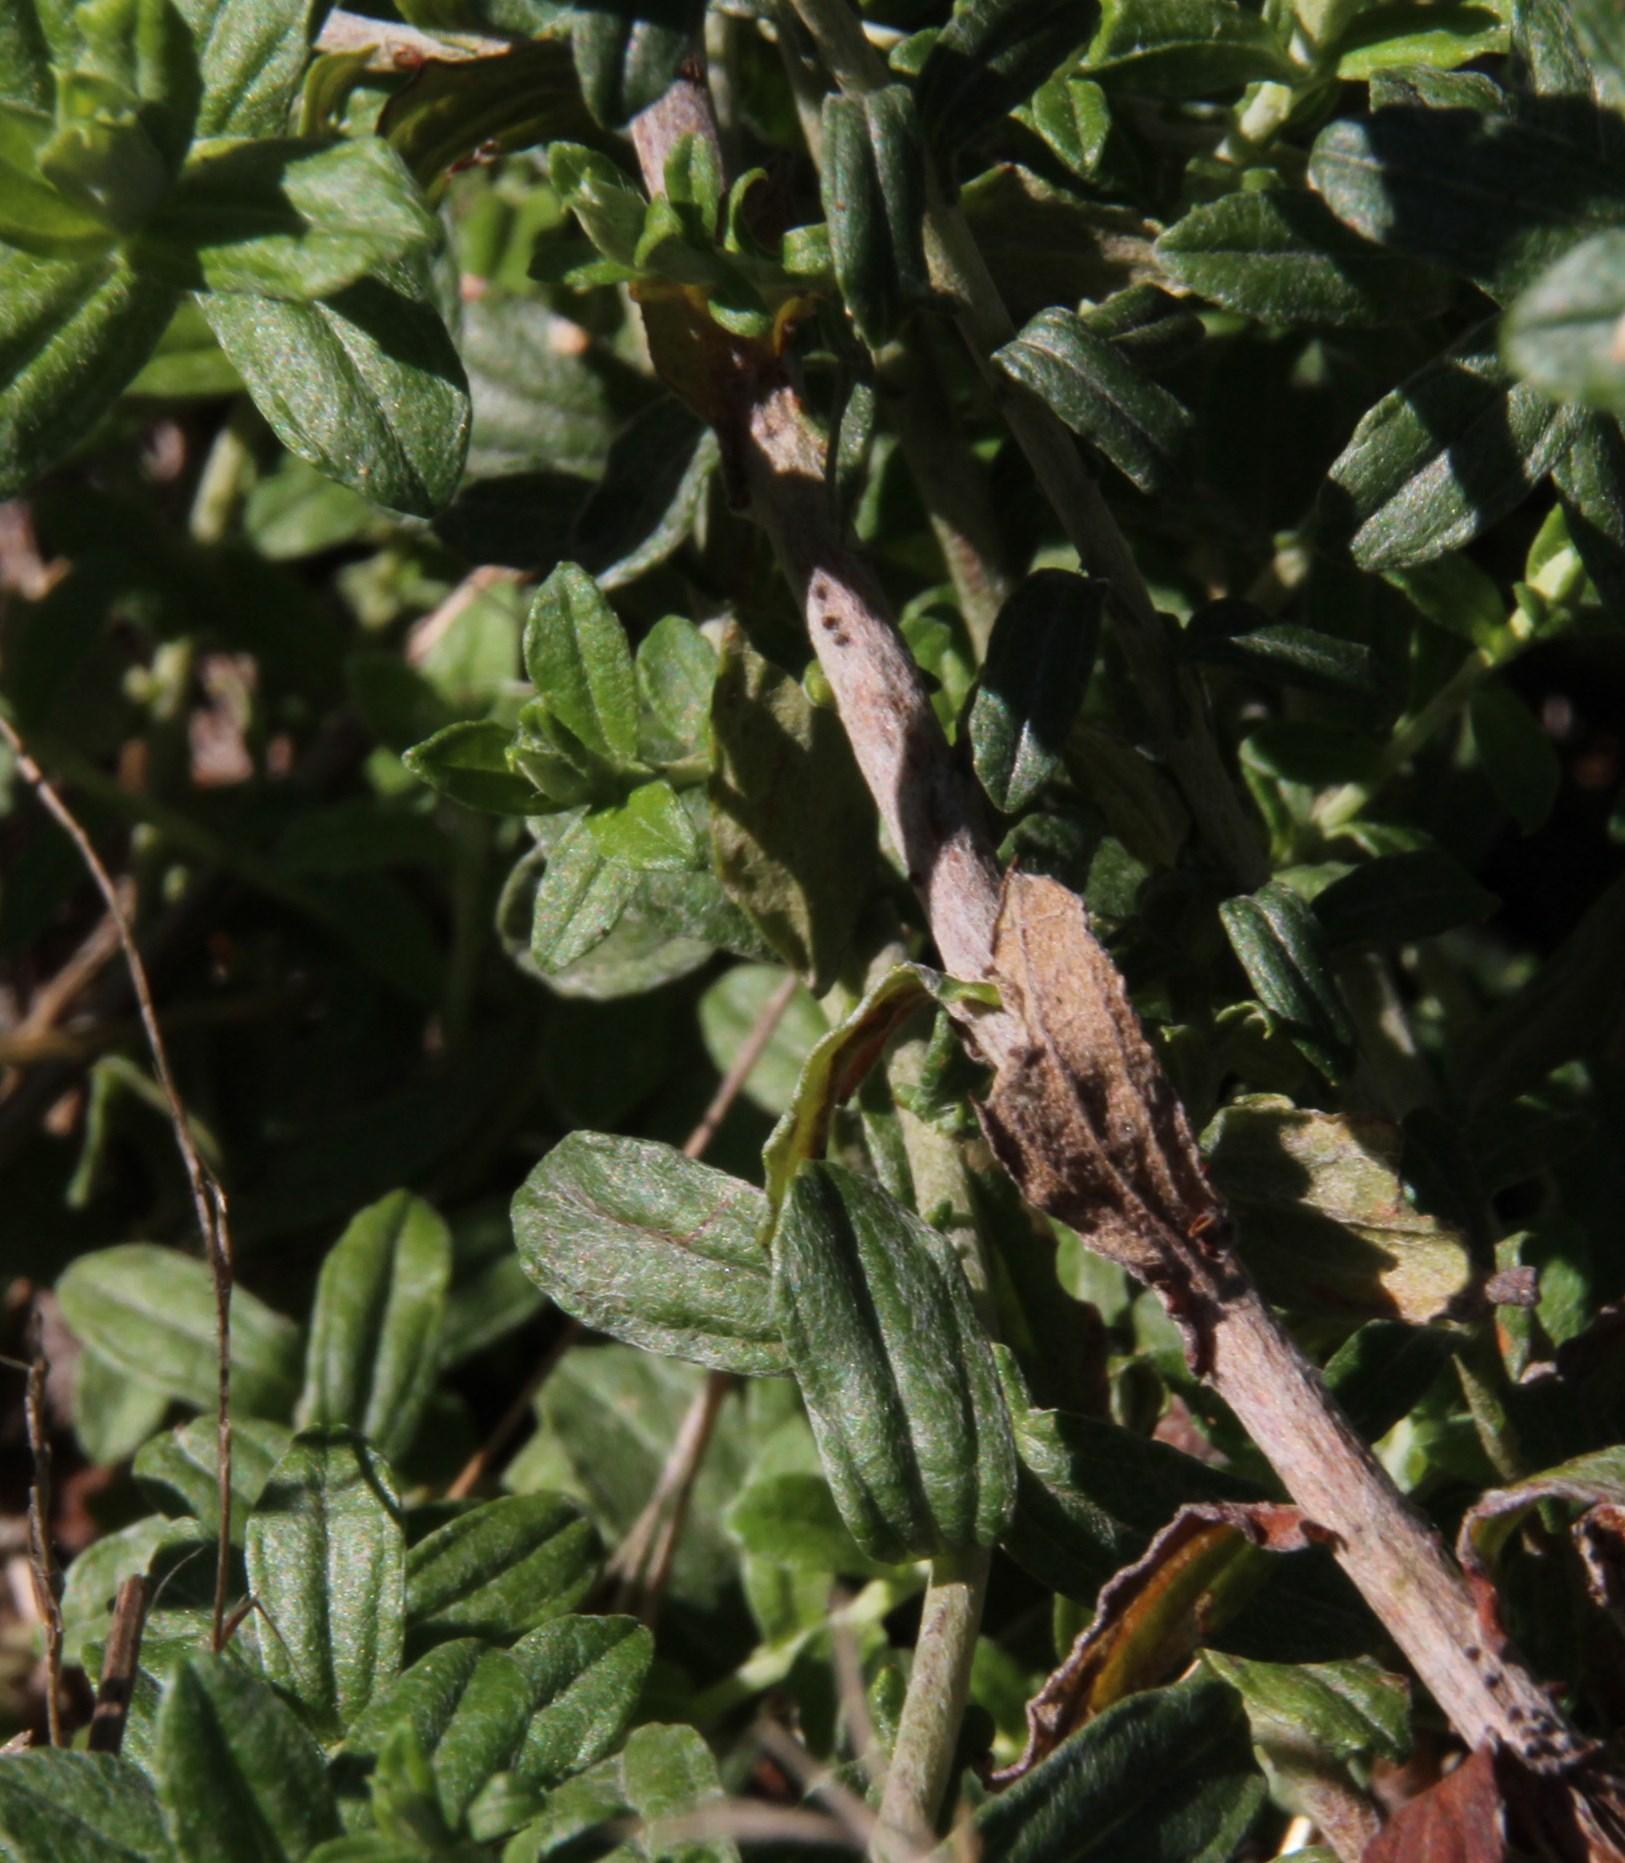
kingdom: Plantae
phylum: Tracheophyta
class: Magnoliopsida
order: Asterales
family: Asteraceae
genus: Helichrysum
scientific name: Helichrysum cymosum
